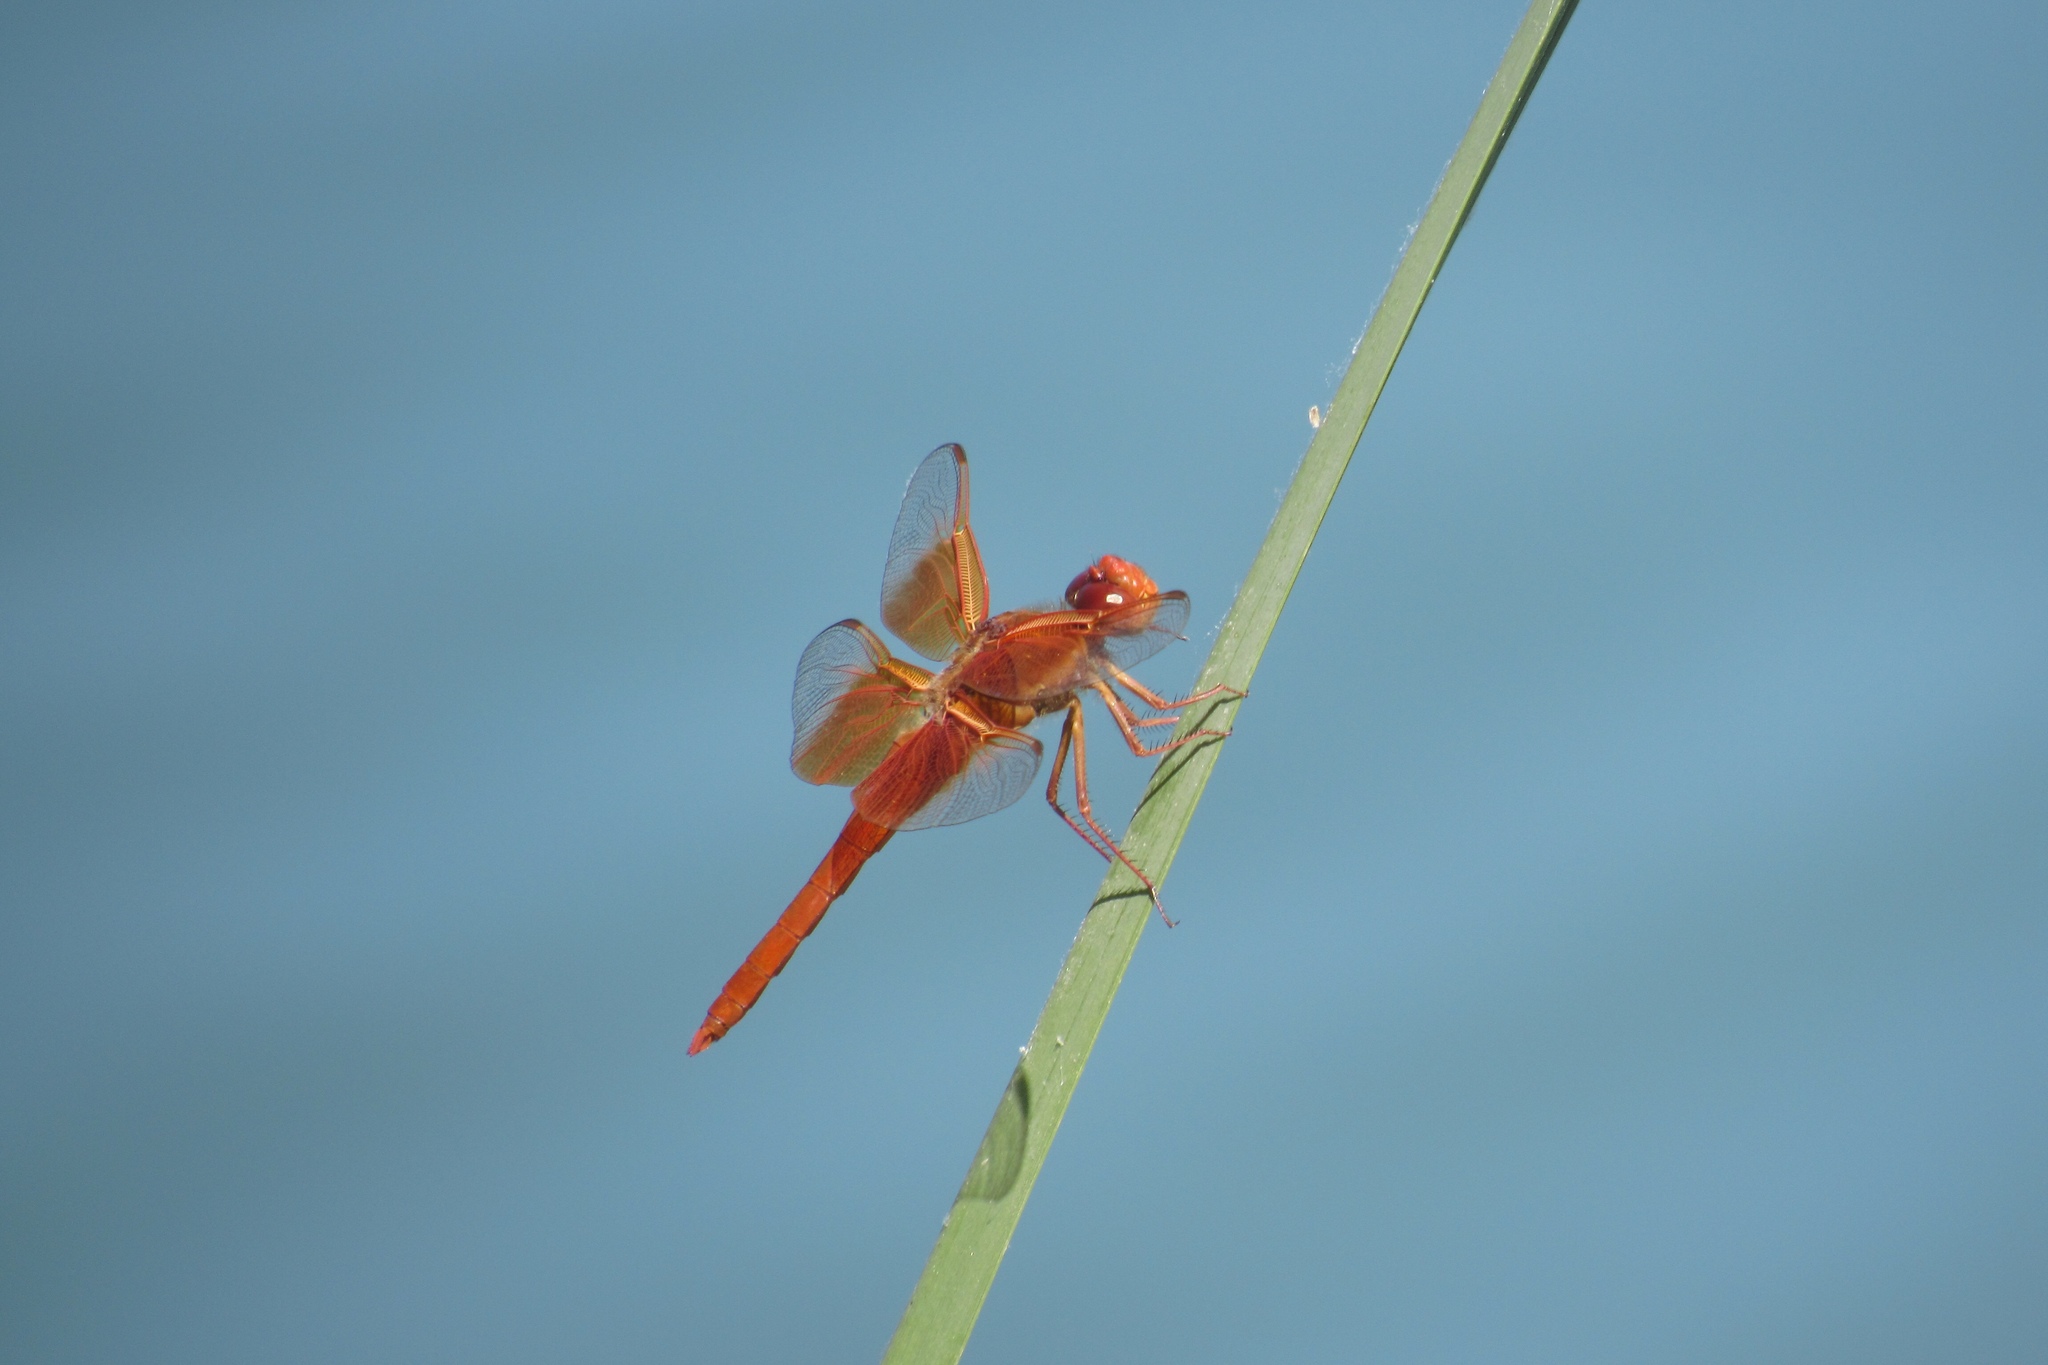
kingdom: Animalia
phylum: Arthropoda
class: Insecta
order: Odonata
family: Libellulidae
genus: Libellula
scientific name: Libellula saturata
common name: Flame skimmer
